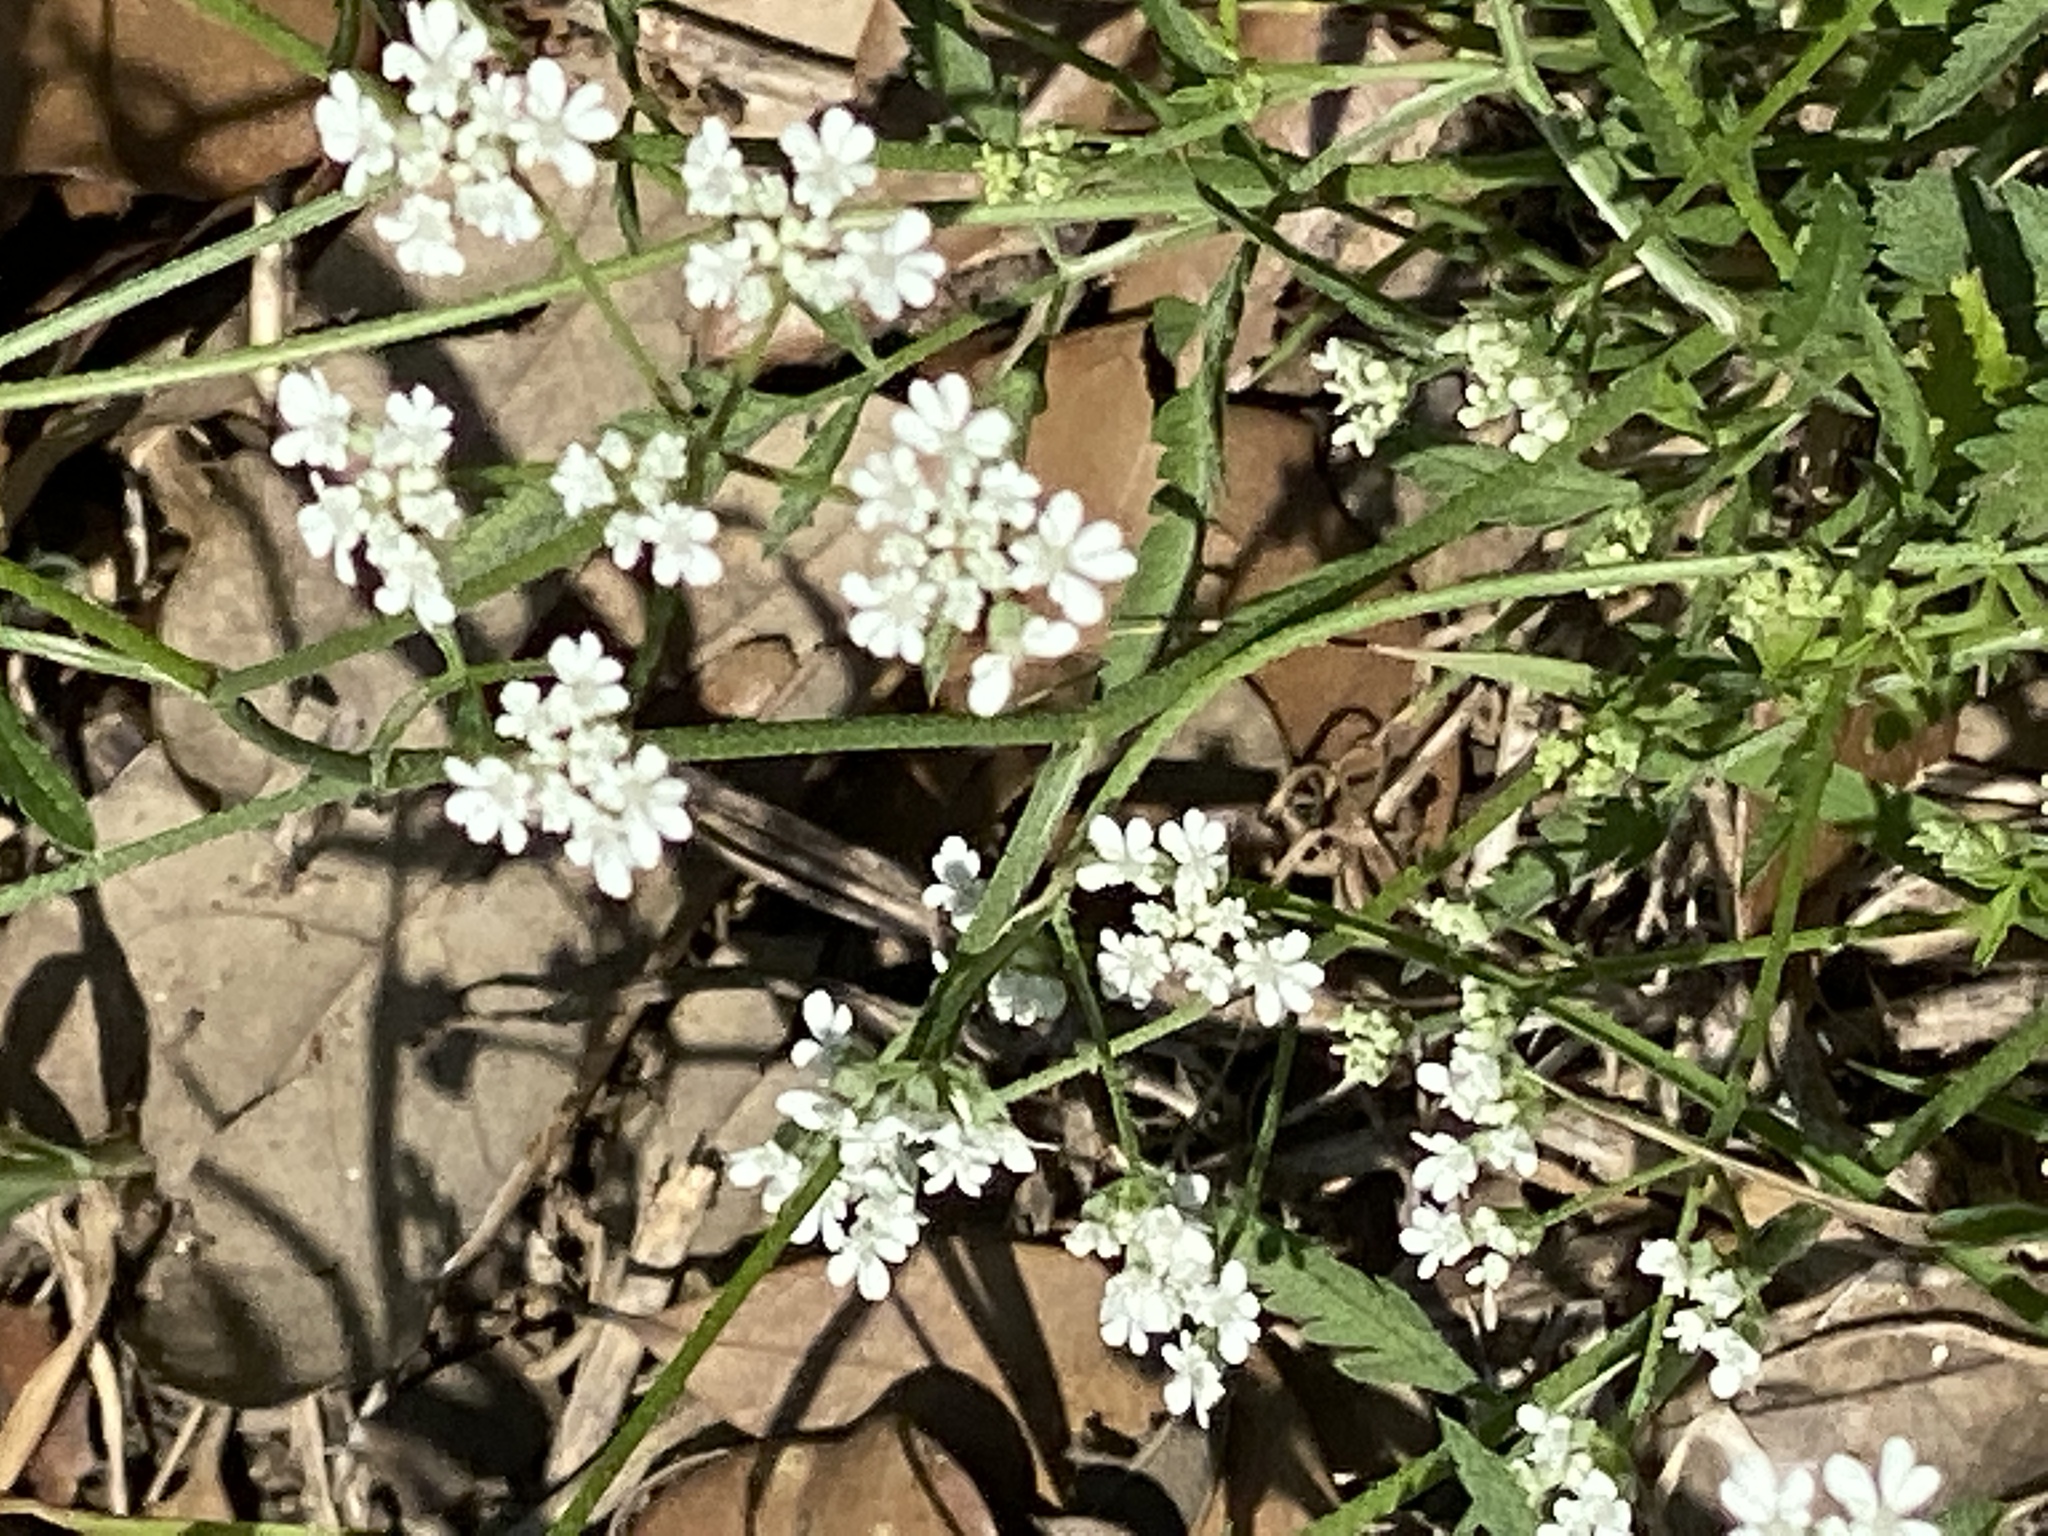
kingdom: Plantae
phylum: Tracheophyta
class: Magnoliopsida
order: Apiales
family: Apiaceae
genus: Torilis
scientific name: Torilis arvensis
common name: Spreading hedge-parsley
